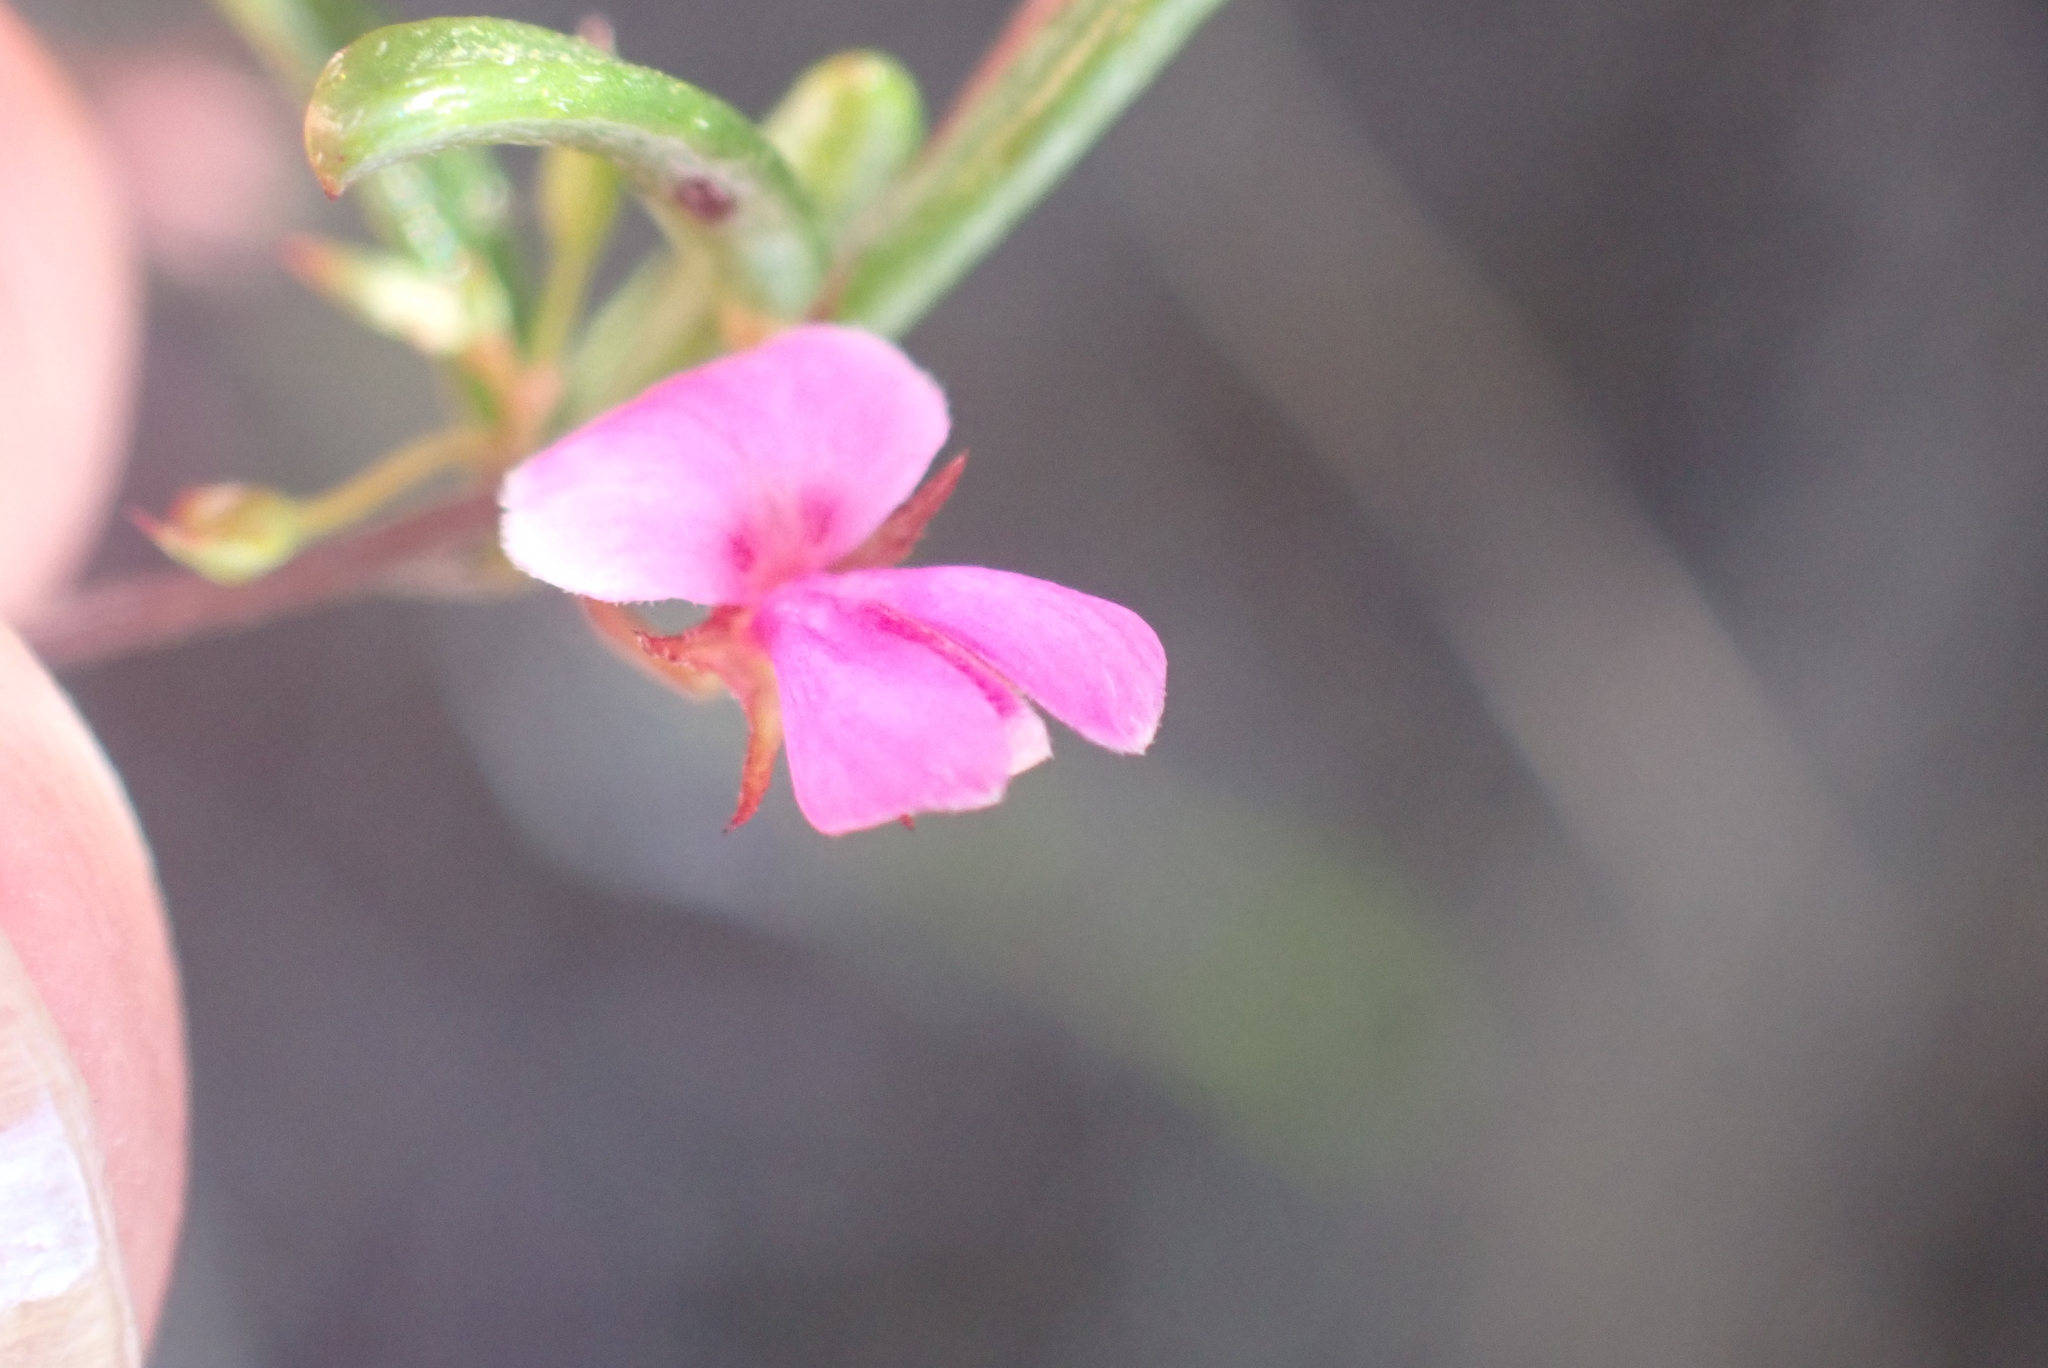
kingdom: Plantae
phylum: Tracheophyta
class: Magnoliopsida
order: Fabales
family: Fabaceae
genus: Indigofera
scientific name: Indigofera setosa
